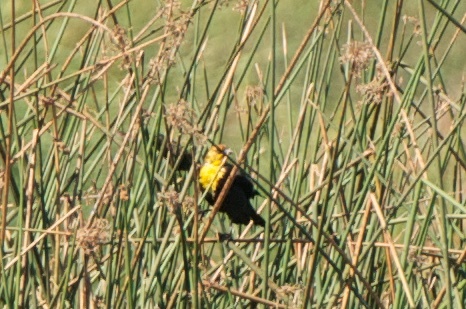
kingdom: Animalia
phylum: Chordata
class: Aves
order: Passeriformes
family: Icteridae
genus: Xanthocephalus
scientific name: Xanthocephalus xanthocephalus
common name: Yellow-headed blackbird
